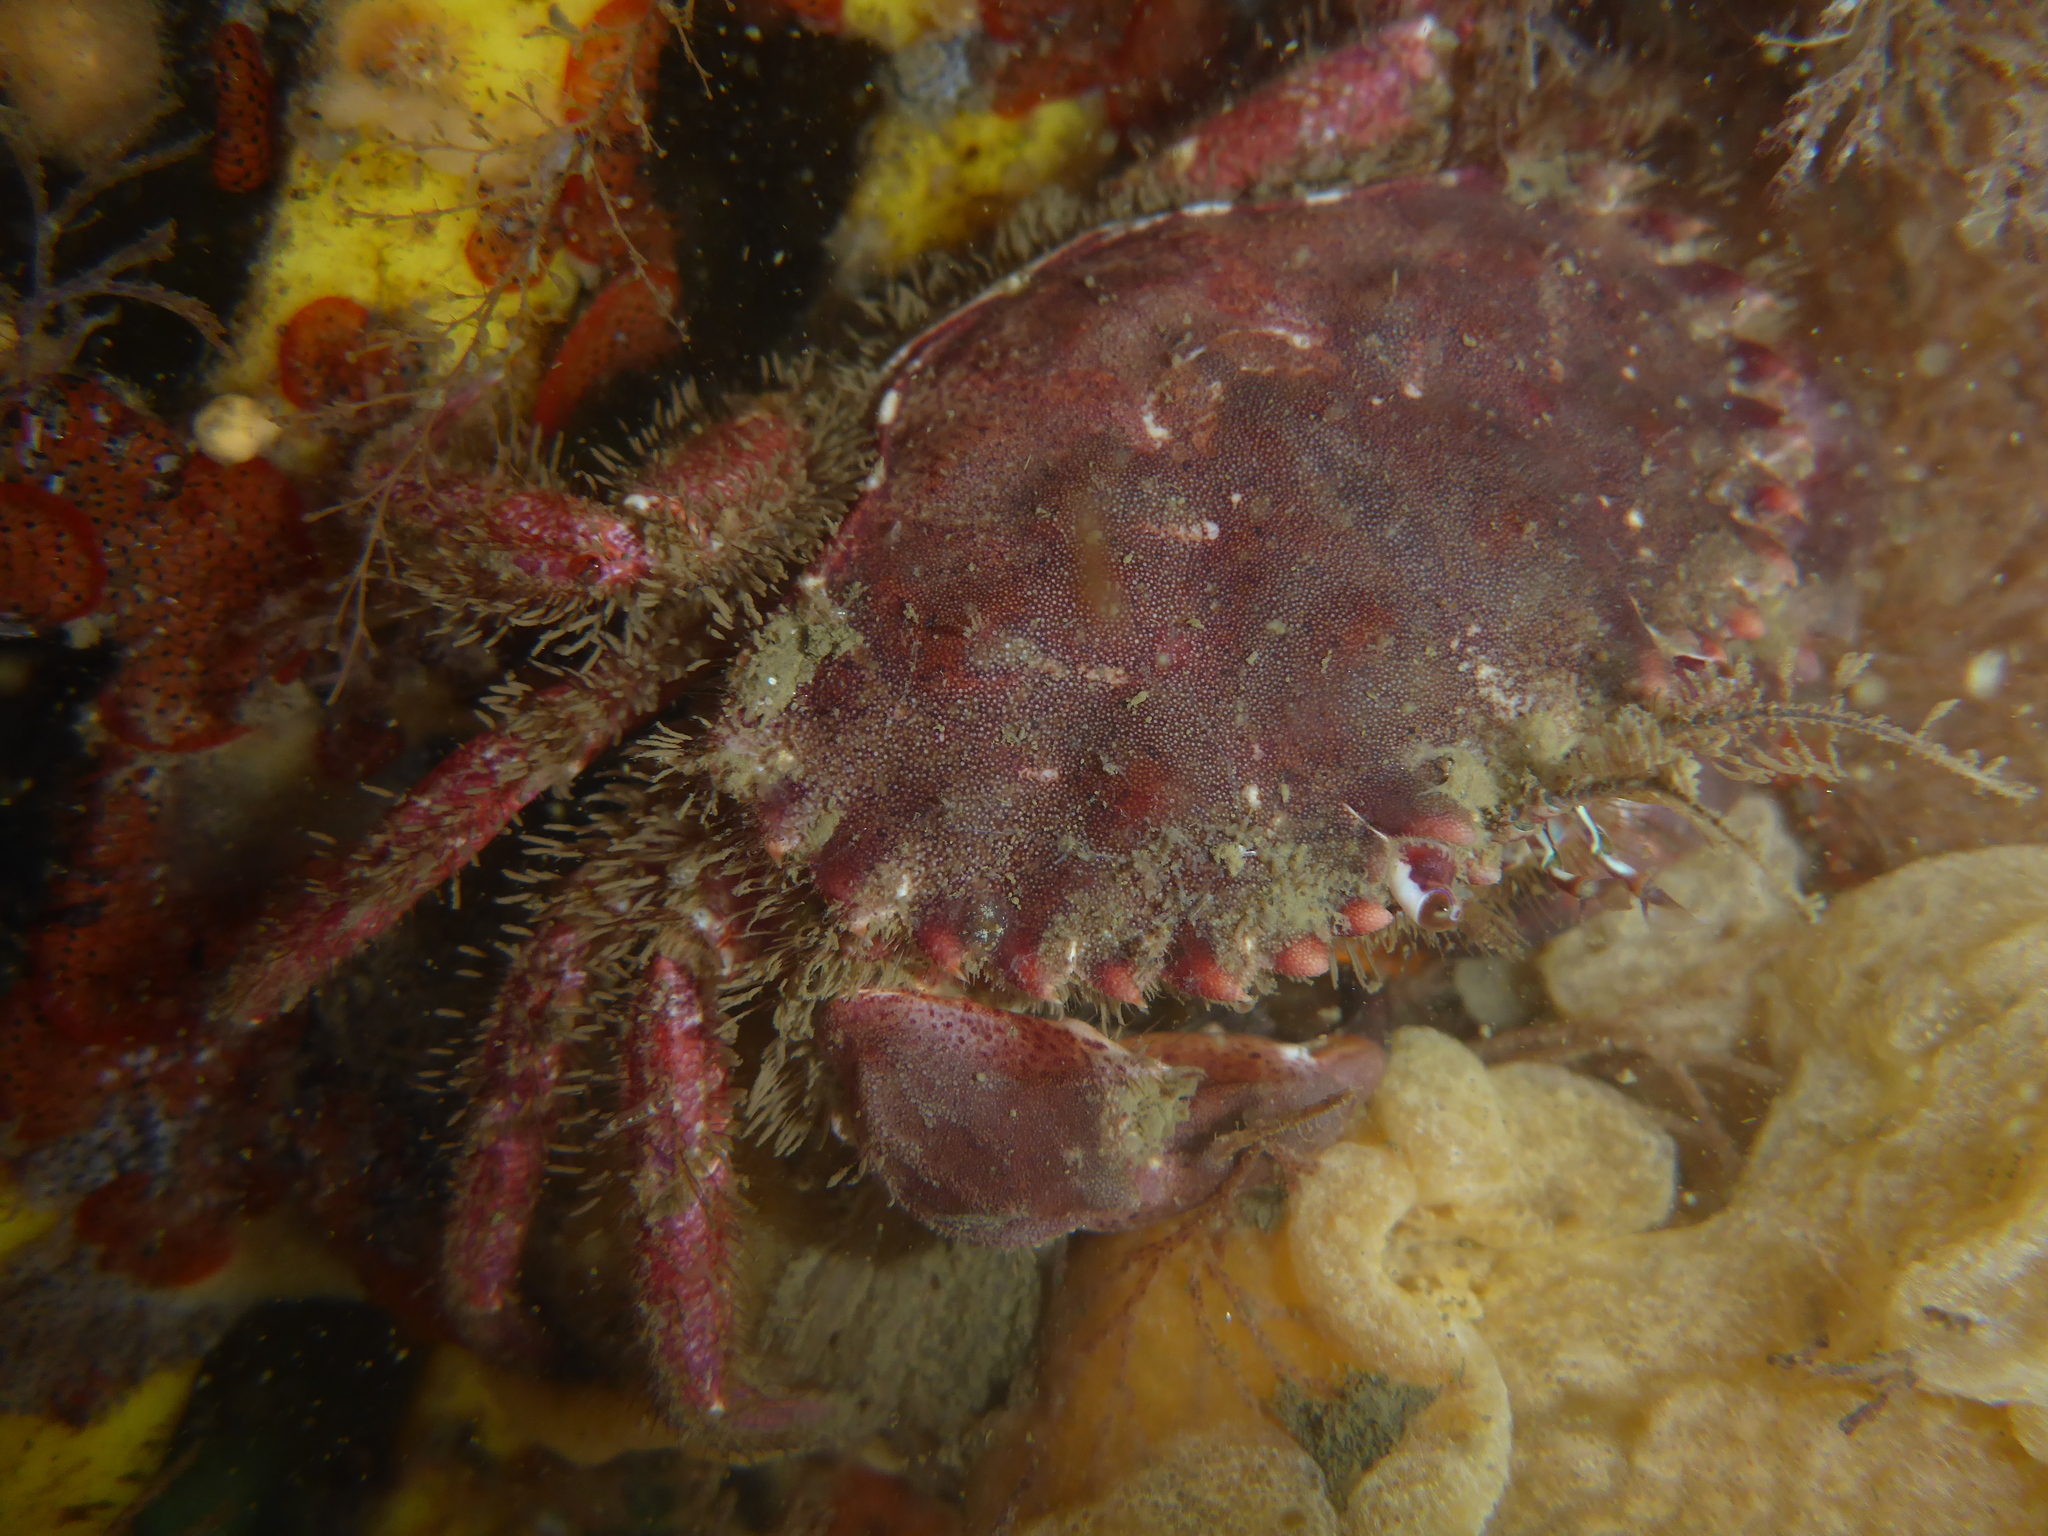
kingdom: Animalia
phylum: Arthropoda
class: Malacostraca
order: Decapoda
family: Cancridae
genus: Romaleon
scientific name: Romaleon antennarium
